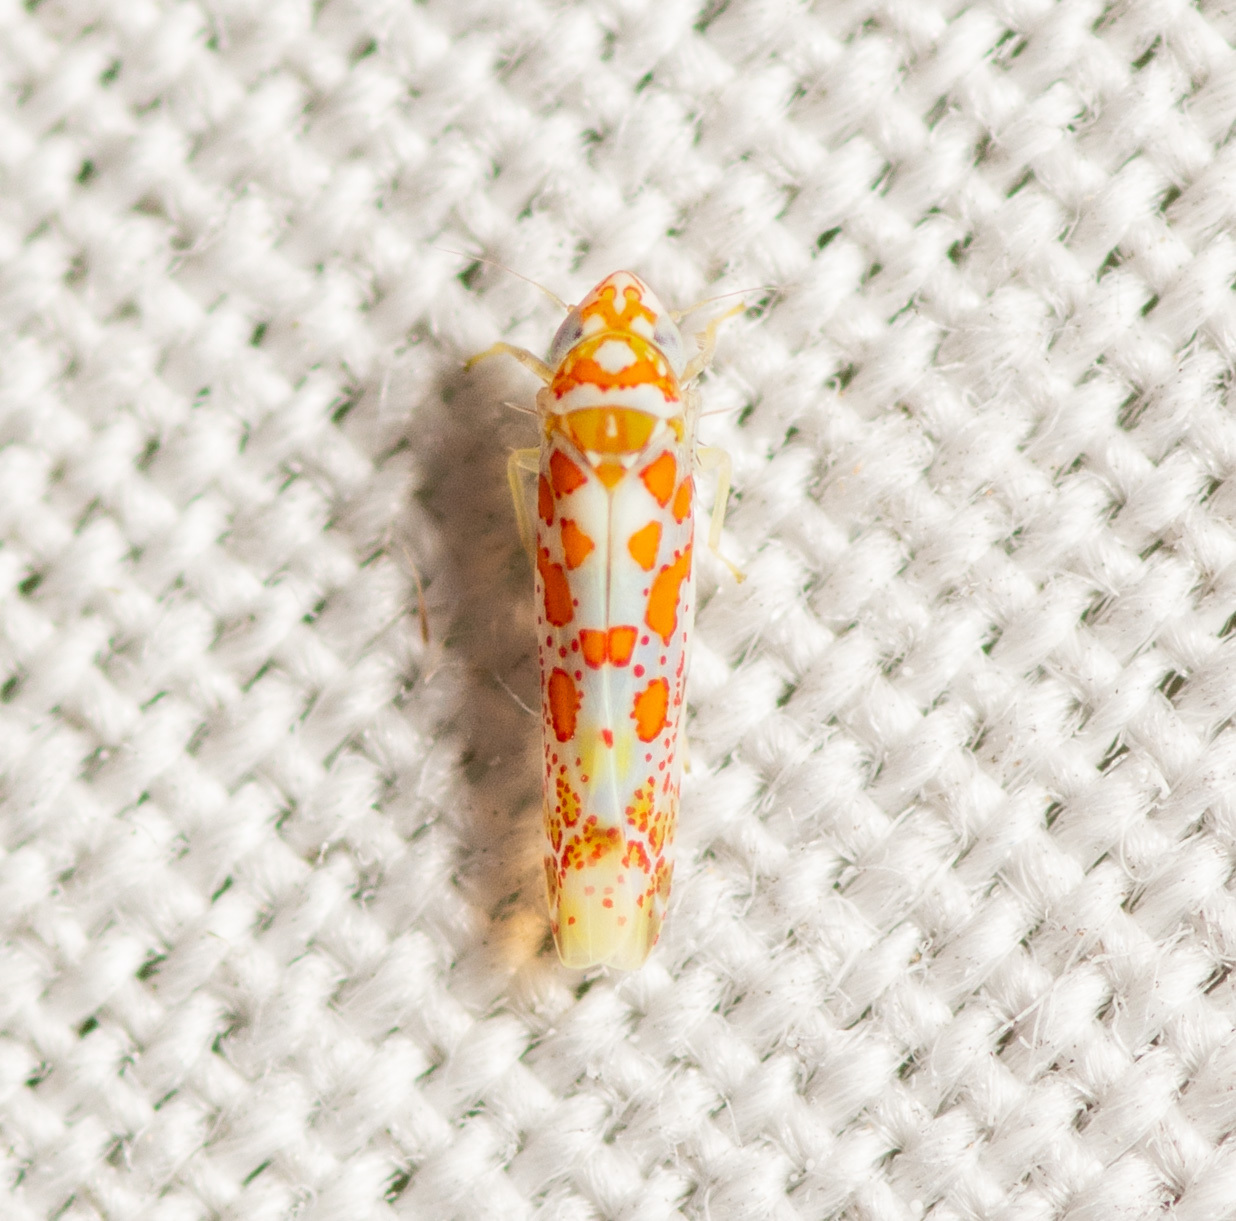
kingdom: Animalia
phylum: Arthropoda
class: Insecta
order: Hemiptera
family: Cicadellidae
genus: Dikrella
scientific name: Dikrella maculata
